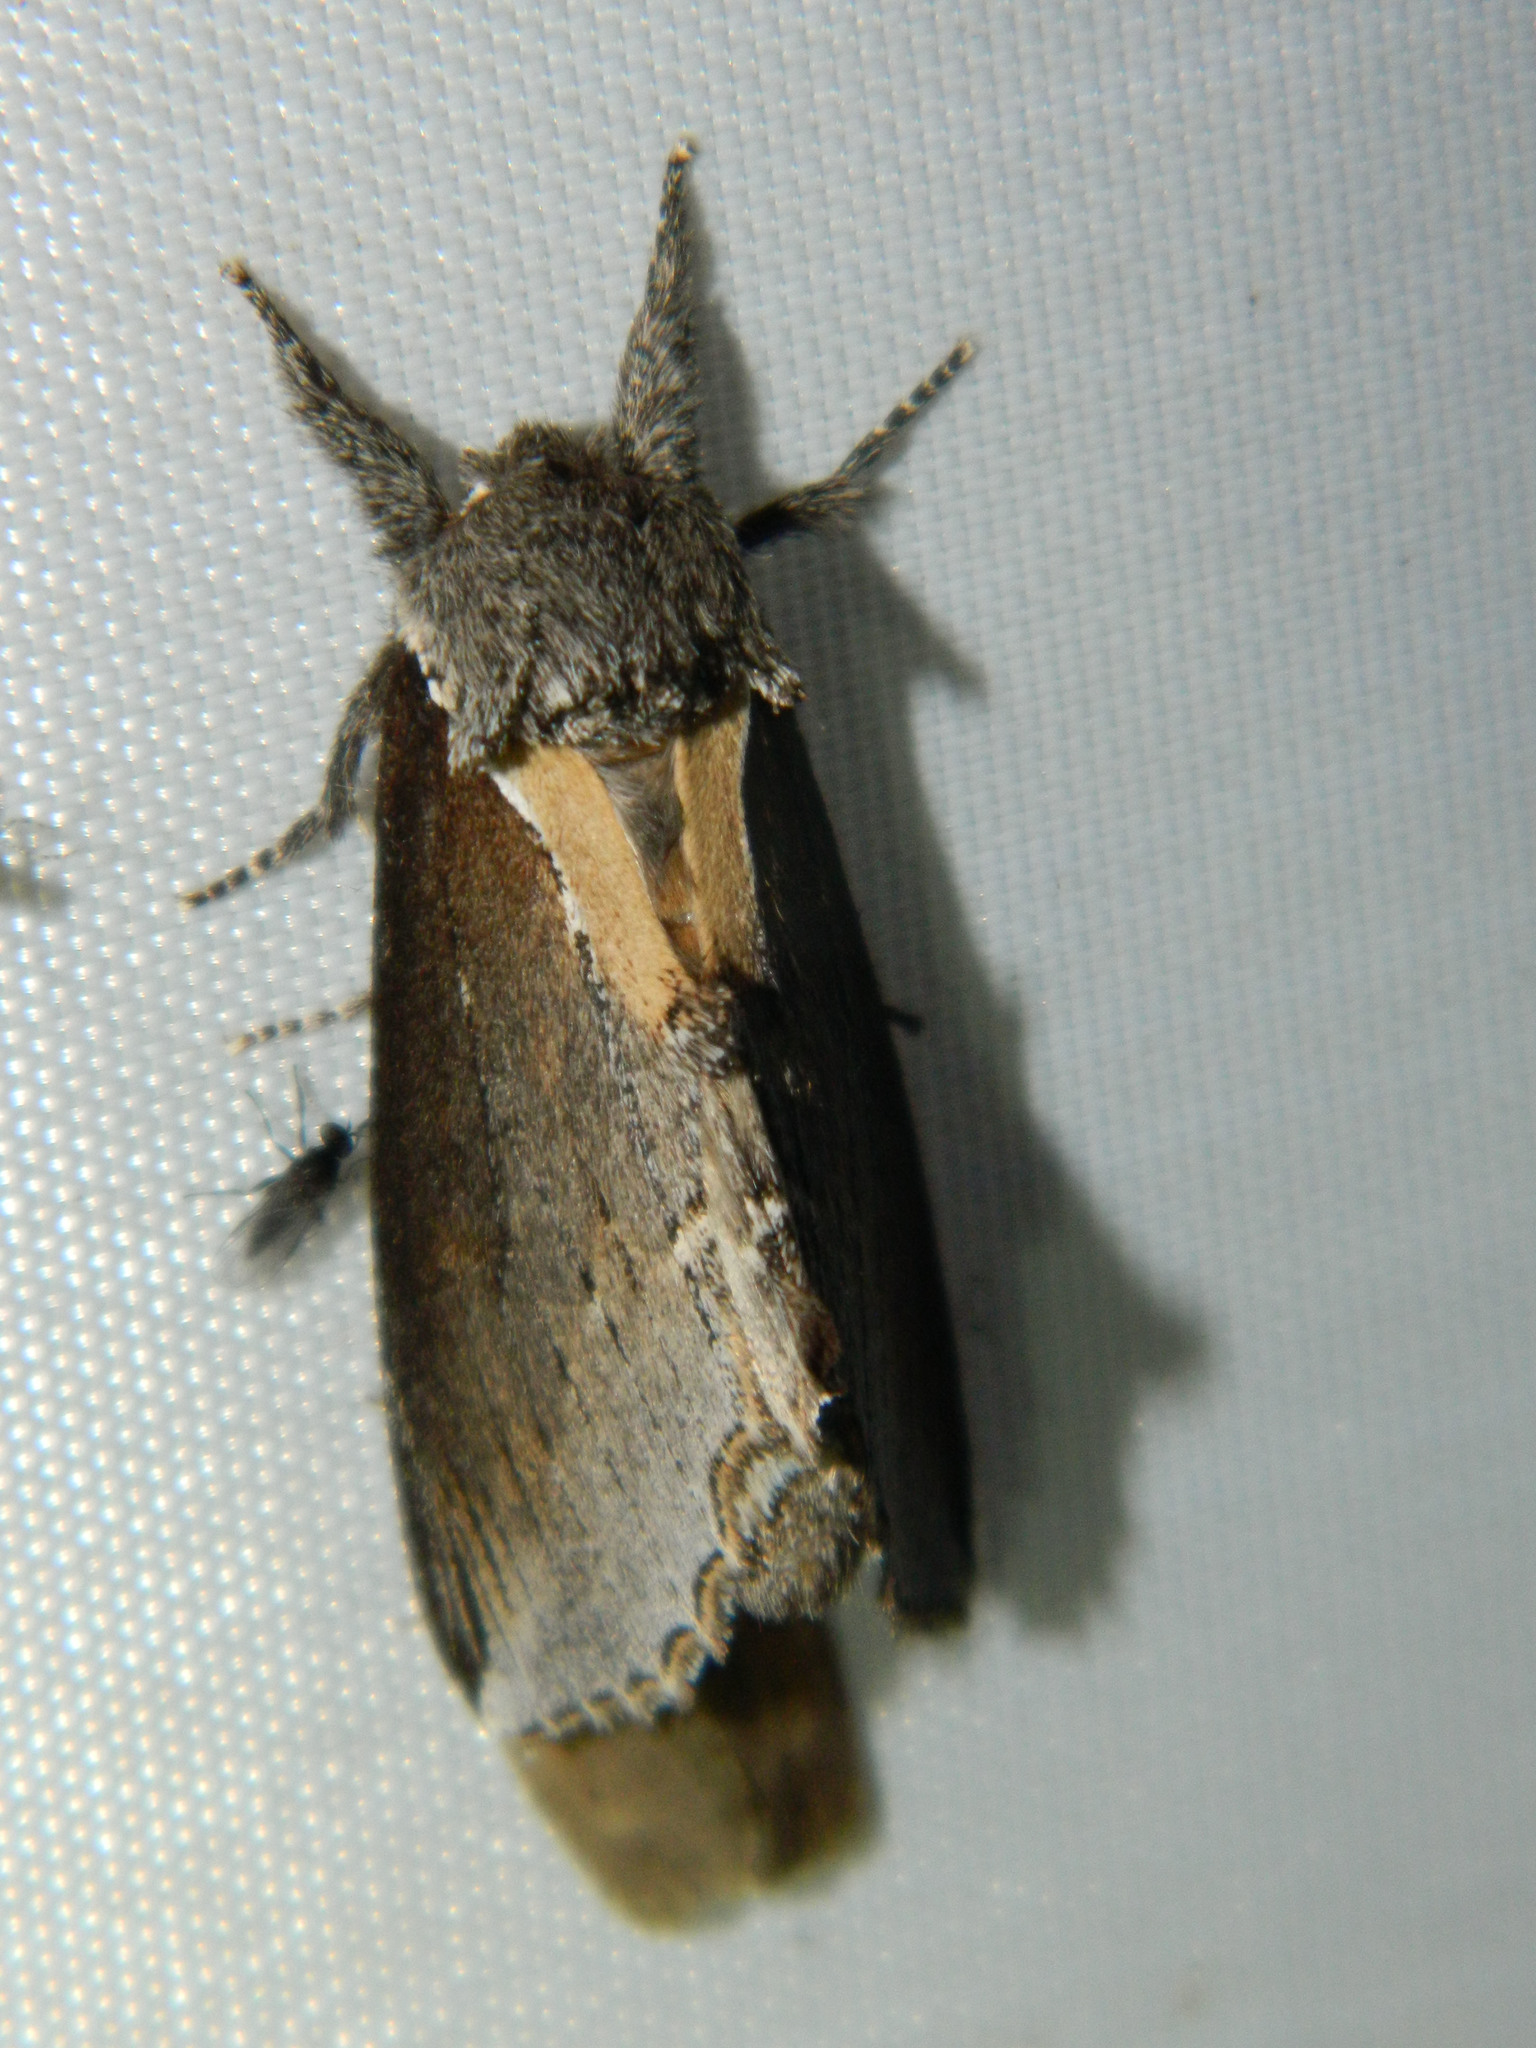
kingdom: Animalia
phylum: Arthropoda
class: Insecta
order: Lepidoptera
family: Notodontidae
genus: Pheosidea
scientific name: Pheosidea elegans
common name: Elegant prominent
